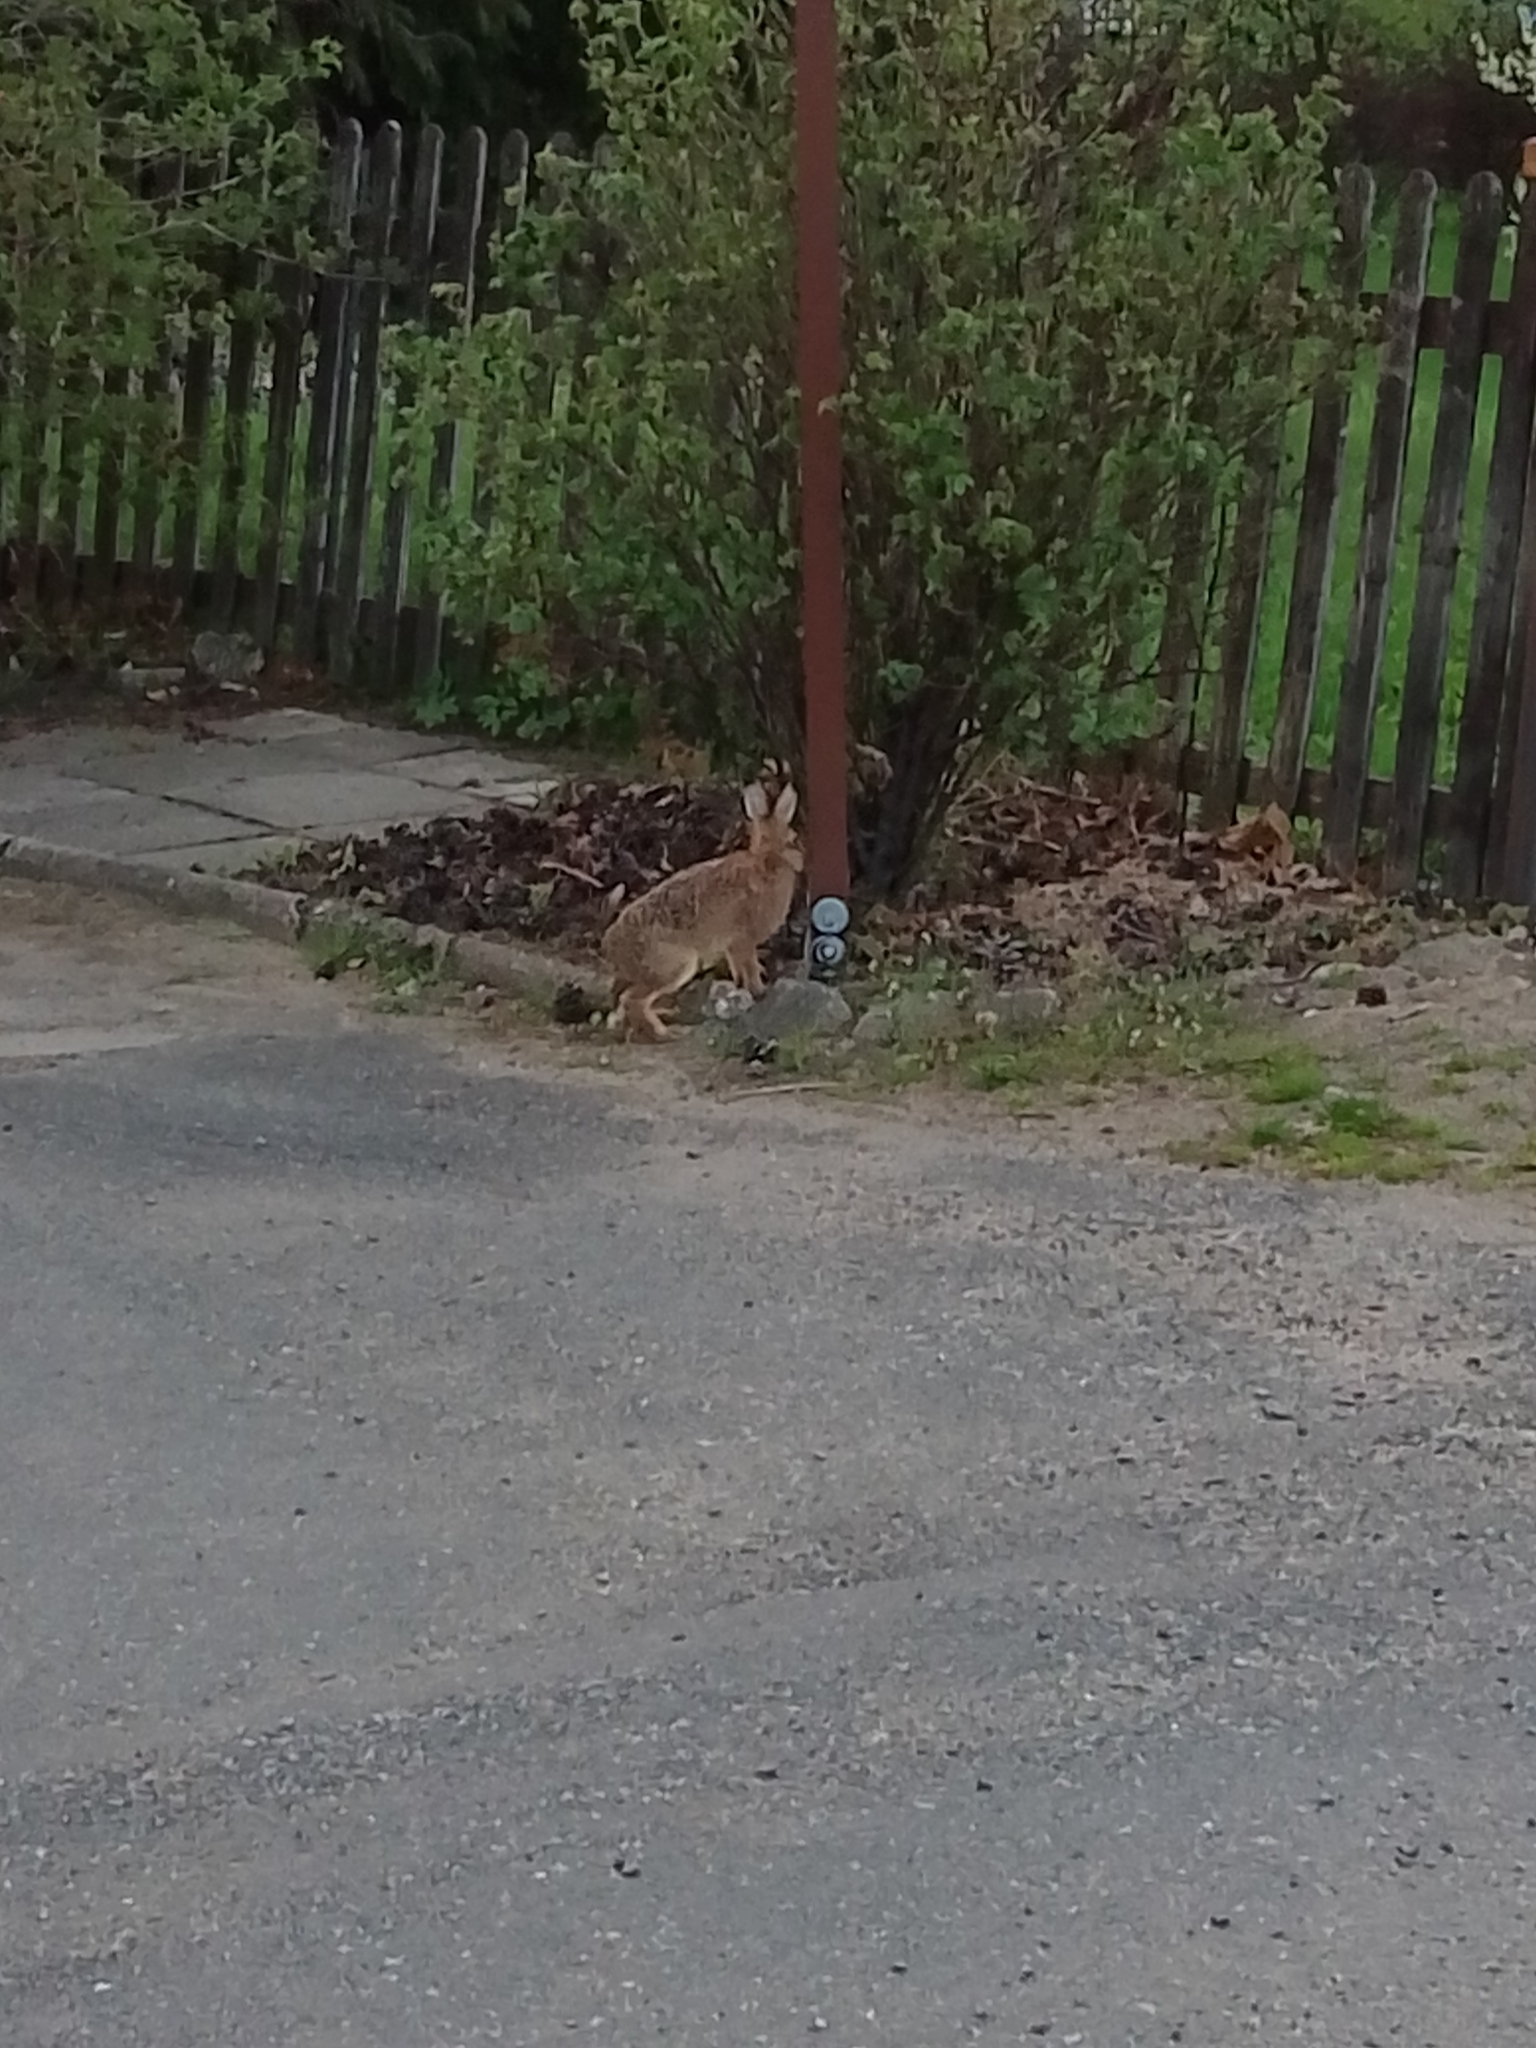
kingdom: Animalia
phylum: Chordata
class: Mammalia
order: Lagomorpha
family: Leporidae
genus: Lepus
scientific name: Lepus europaeus
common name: European hare
